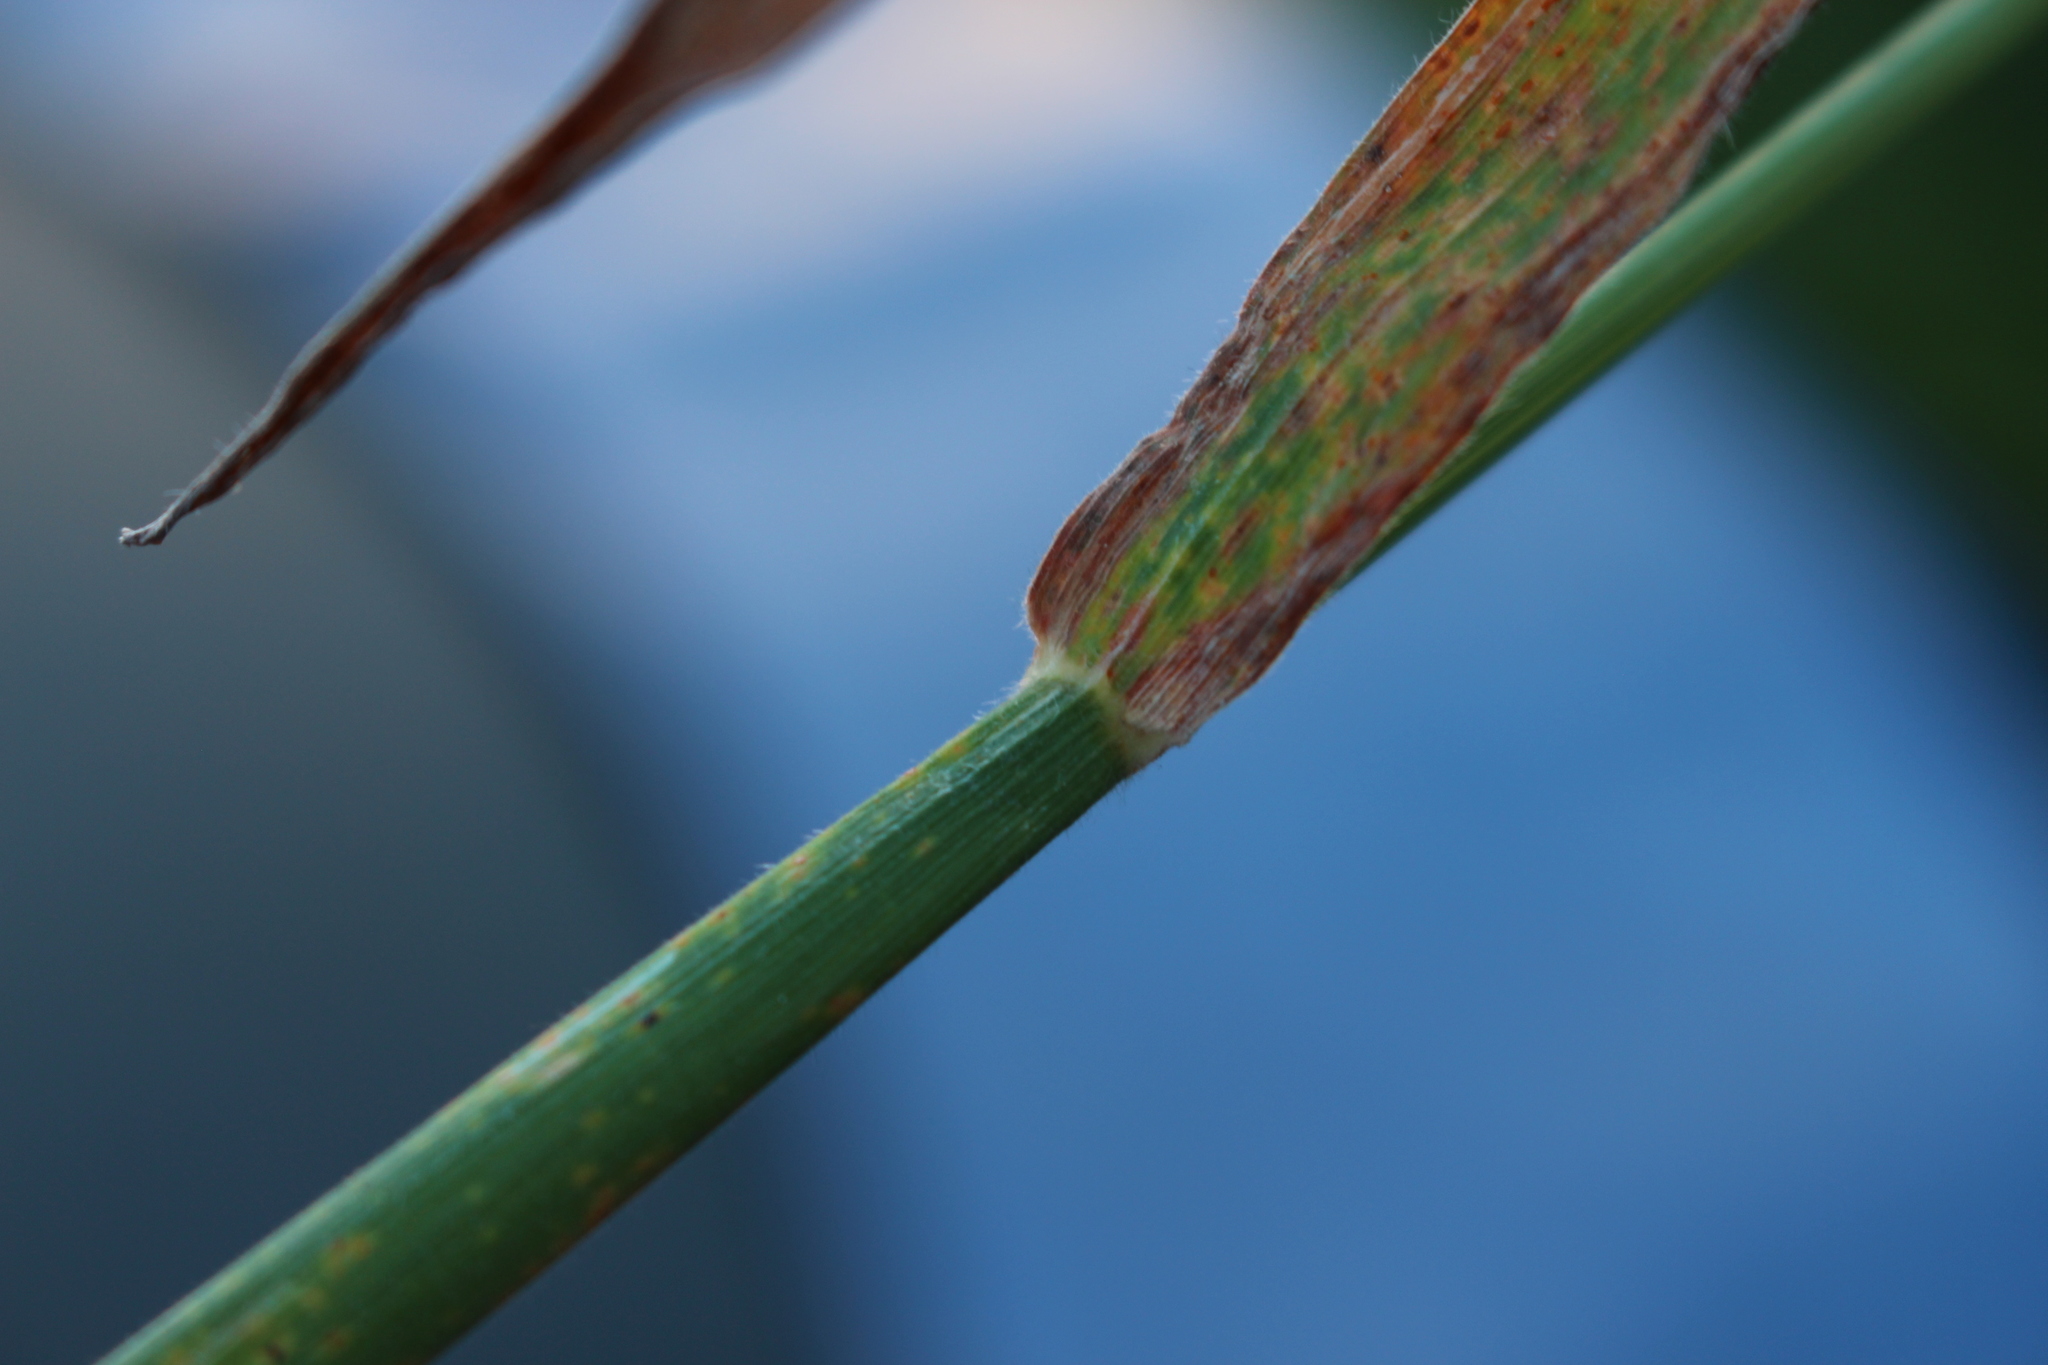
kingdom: Plantae
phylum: Tracheophyta
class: Liliopsida
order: Poales
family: Poaceae
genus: Holcus
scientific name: Holcus lanatus
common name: Yorkshire-fog
